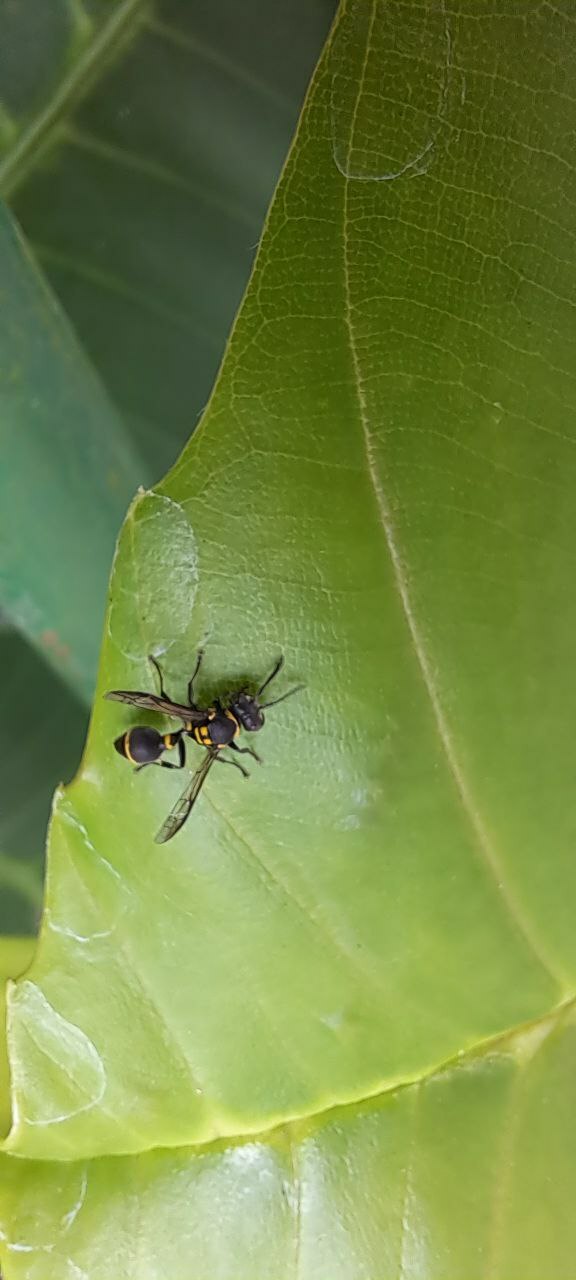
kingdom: Animalia
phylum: Arthropoda
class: Insecta
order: Hymenoptera
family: Vespidae
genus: Ropalidia
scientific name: Ropalidia timida
